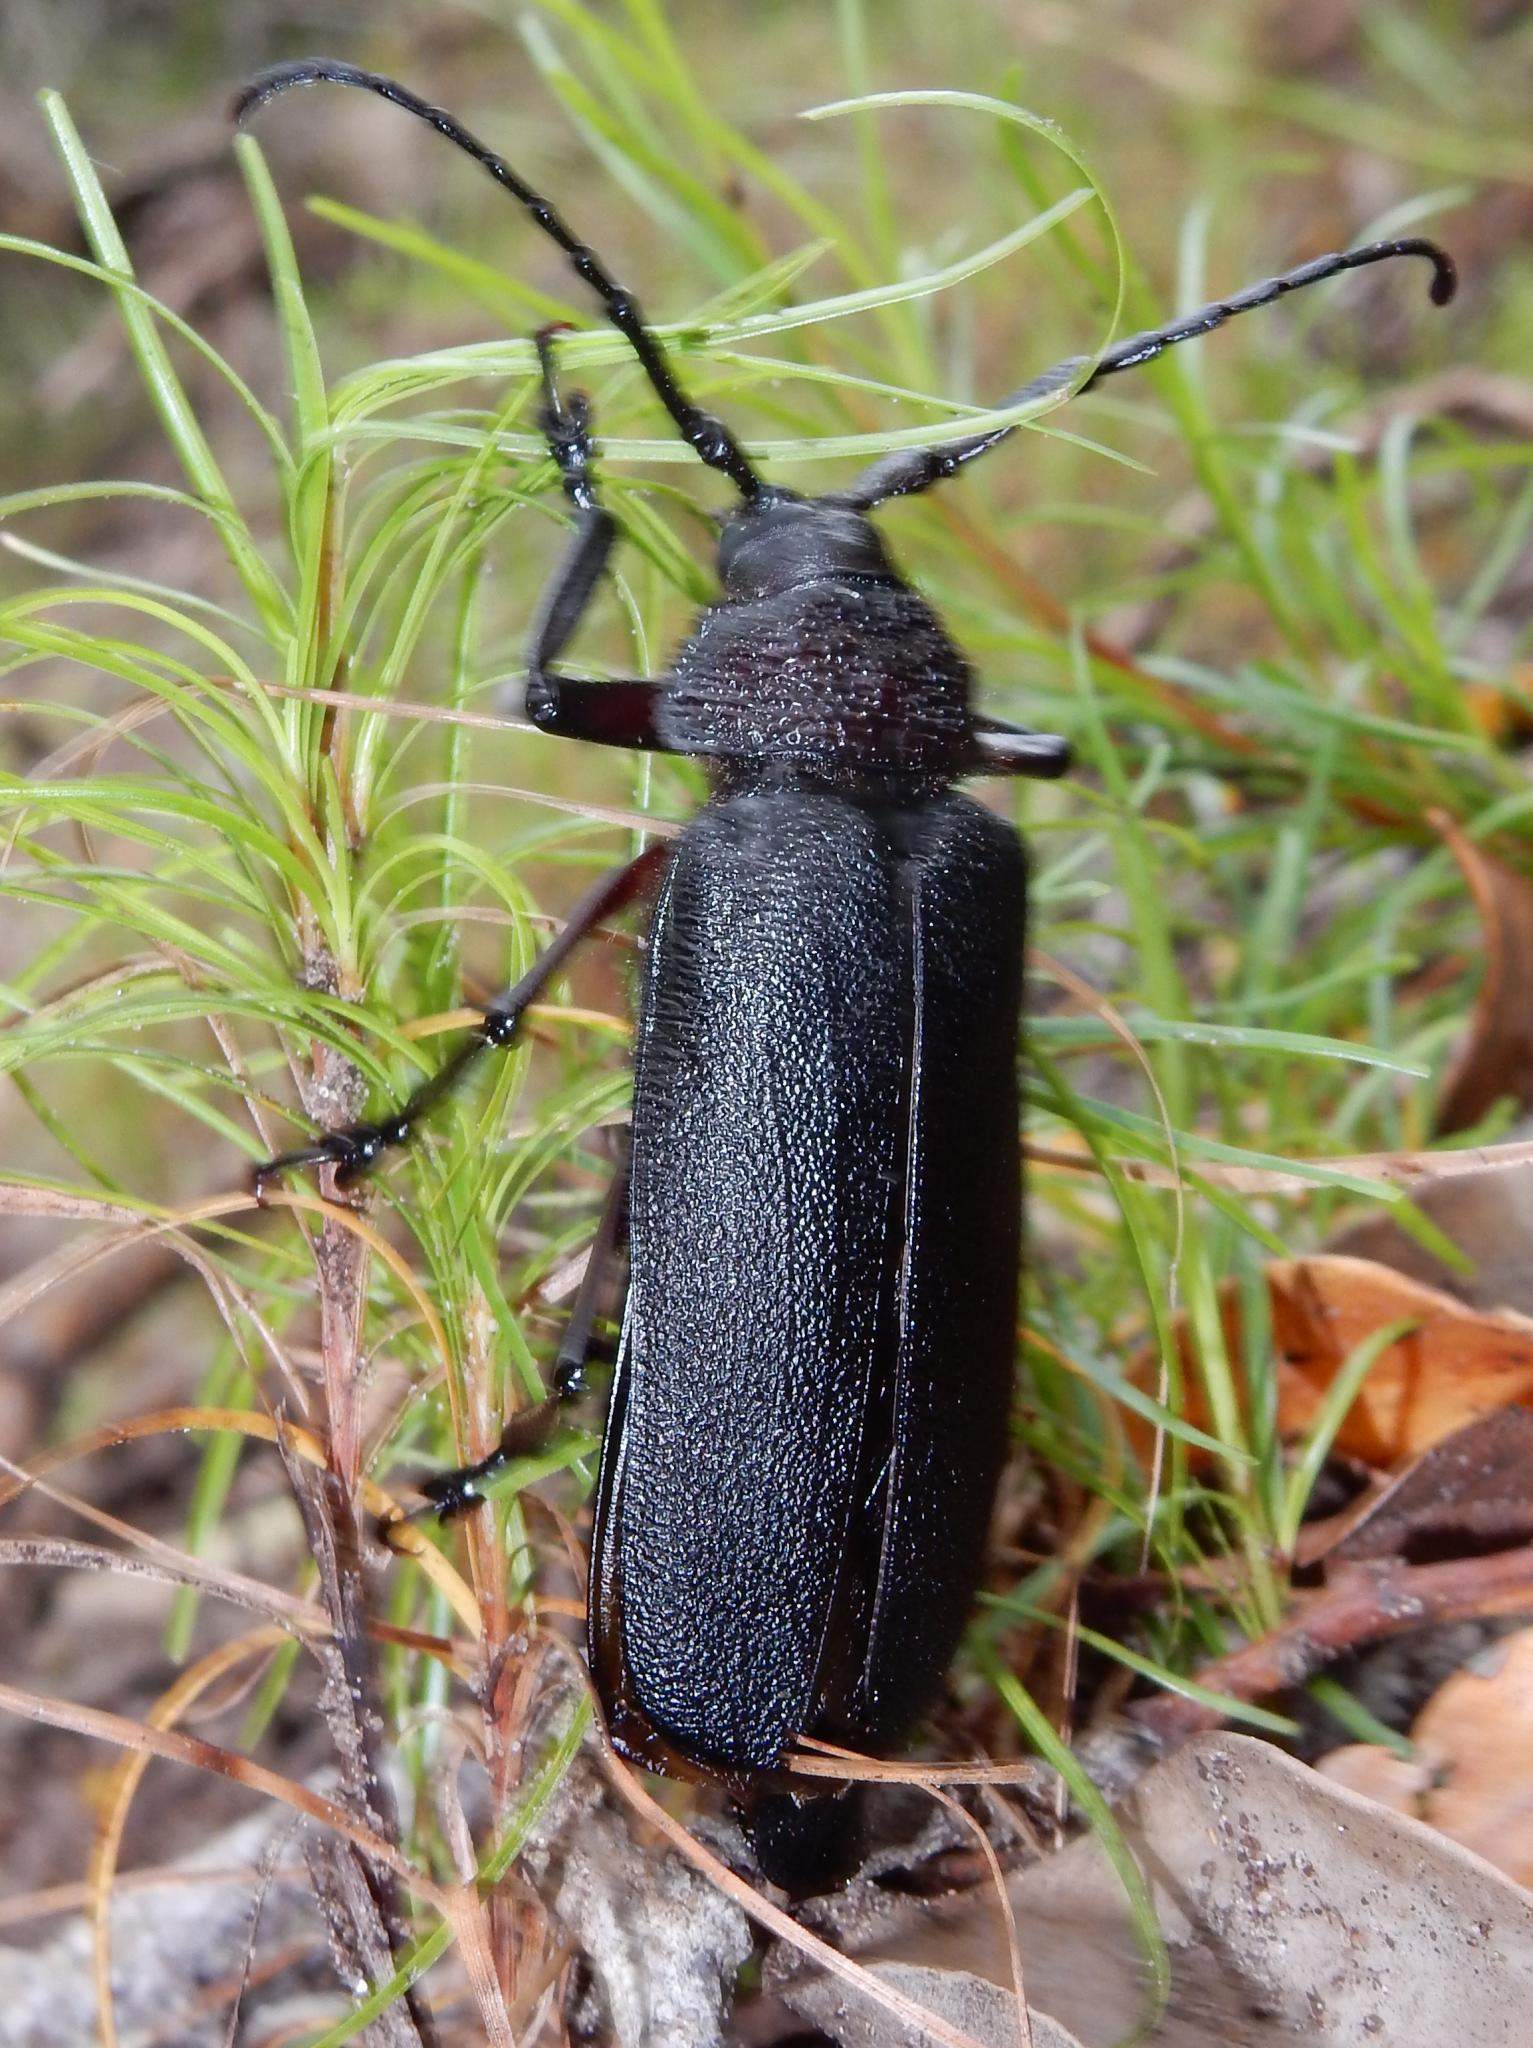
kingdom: Animalia
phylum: Arthropoda
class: Insecta
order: Coleoptera
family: Cerambycidae
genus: Paramacrotoma
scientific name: Paramacrotoma scabridorsis
